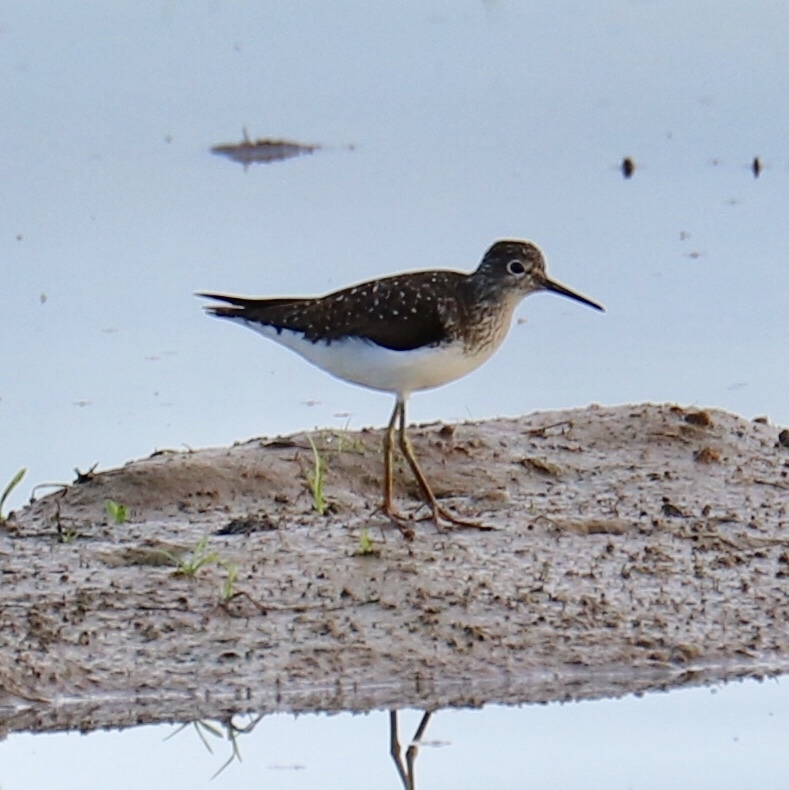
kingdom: Animalia
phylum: Chordata
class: Aves
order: Charadriiformes
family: Scolopacidae
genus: Tringa
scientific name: Tringa solitaria
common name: Solitary sandpiper
